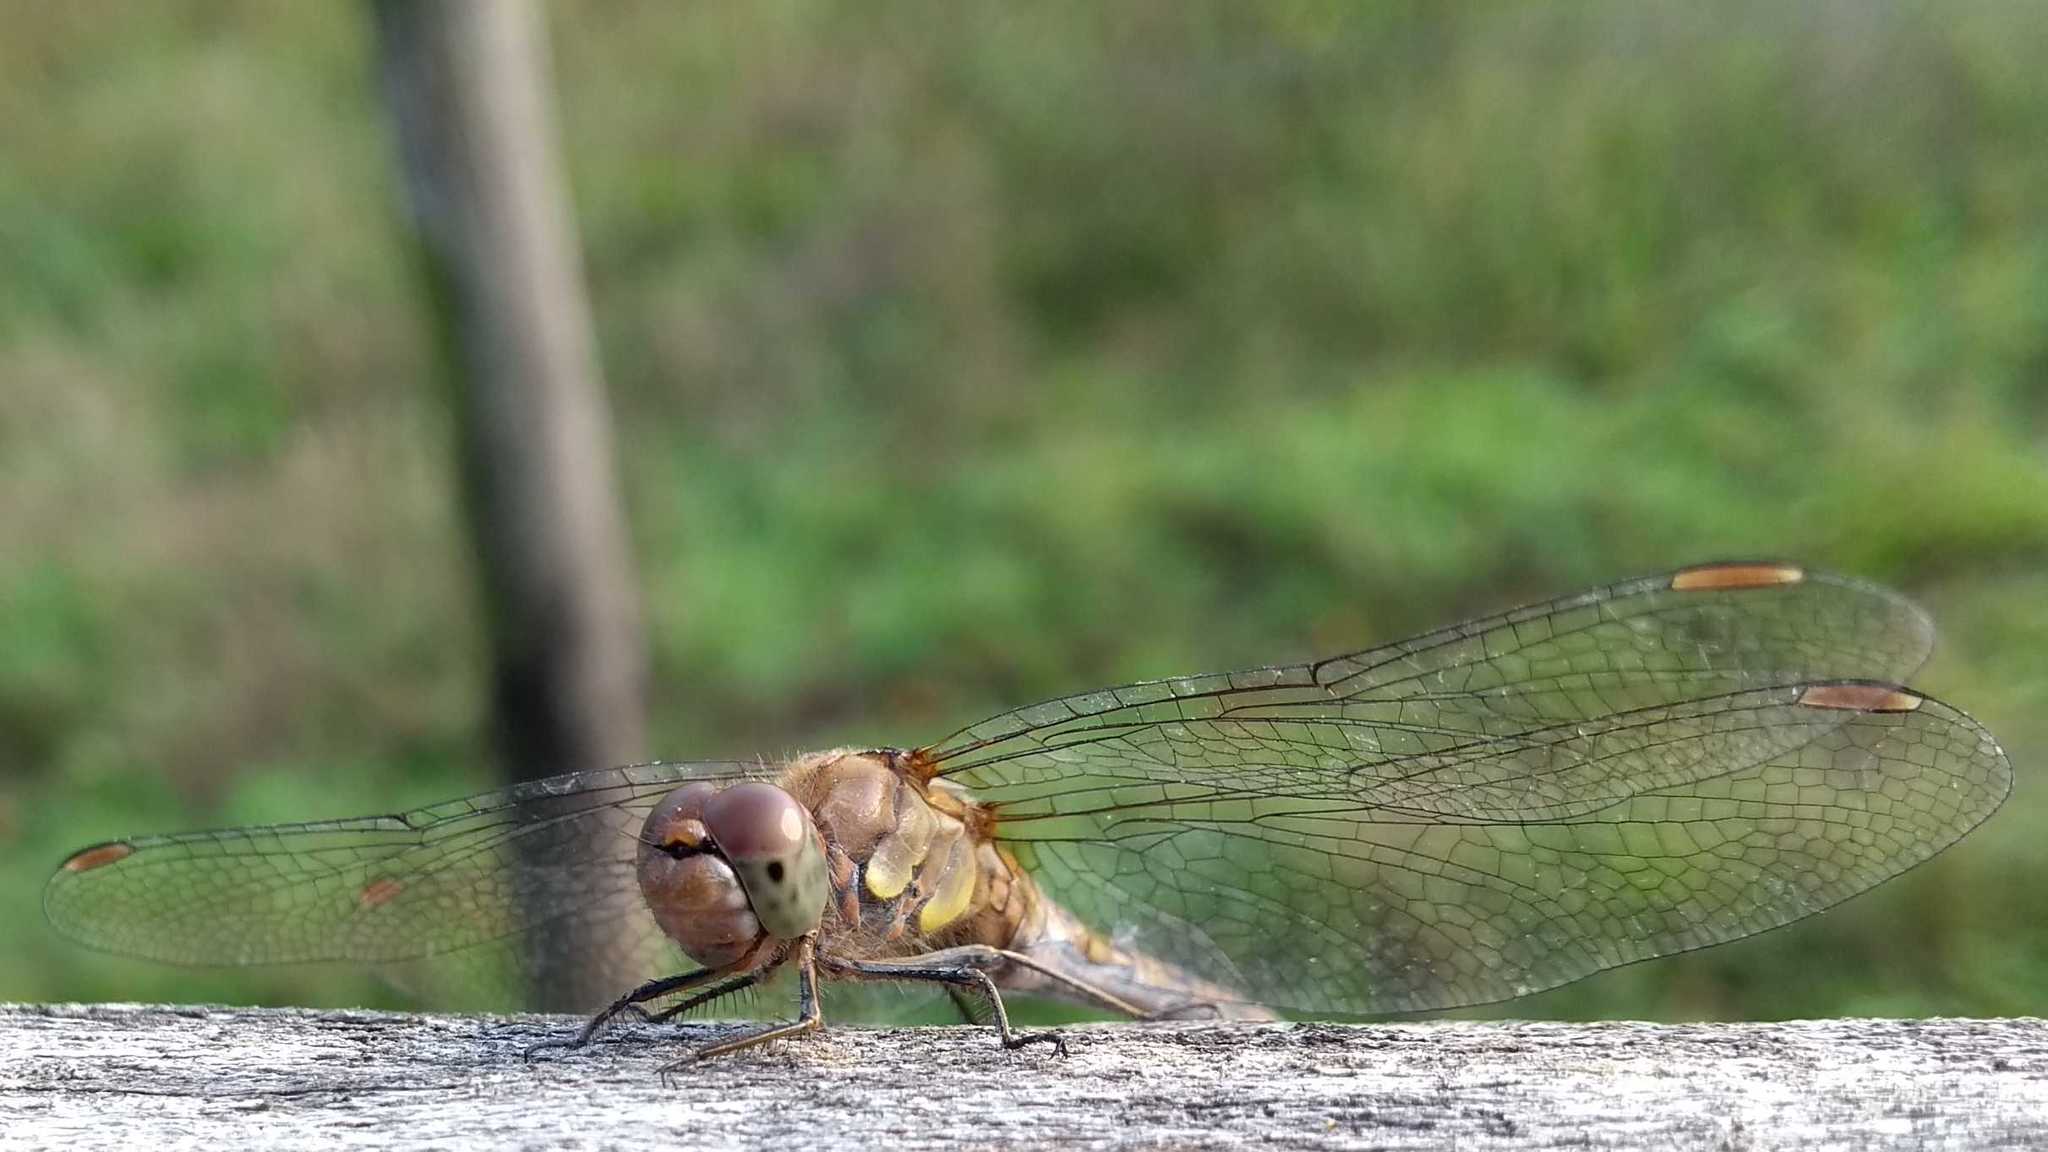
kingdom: Animalia
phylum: Arthropoda
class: Insecta
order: Odonata
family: Libellulidae
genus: Sympetrum
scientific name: Sympetrum striolatum
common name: Common darter
